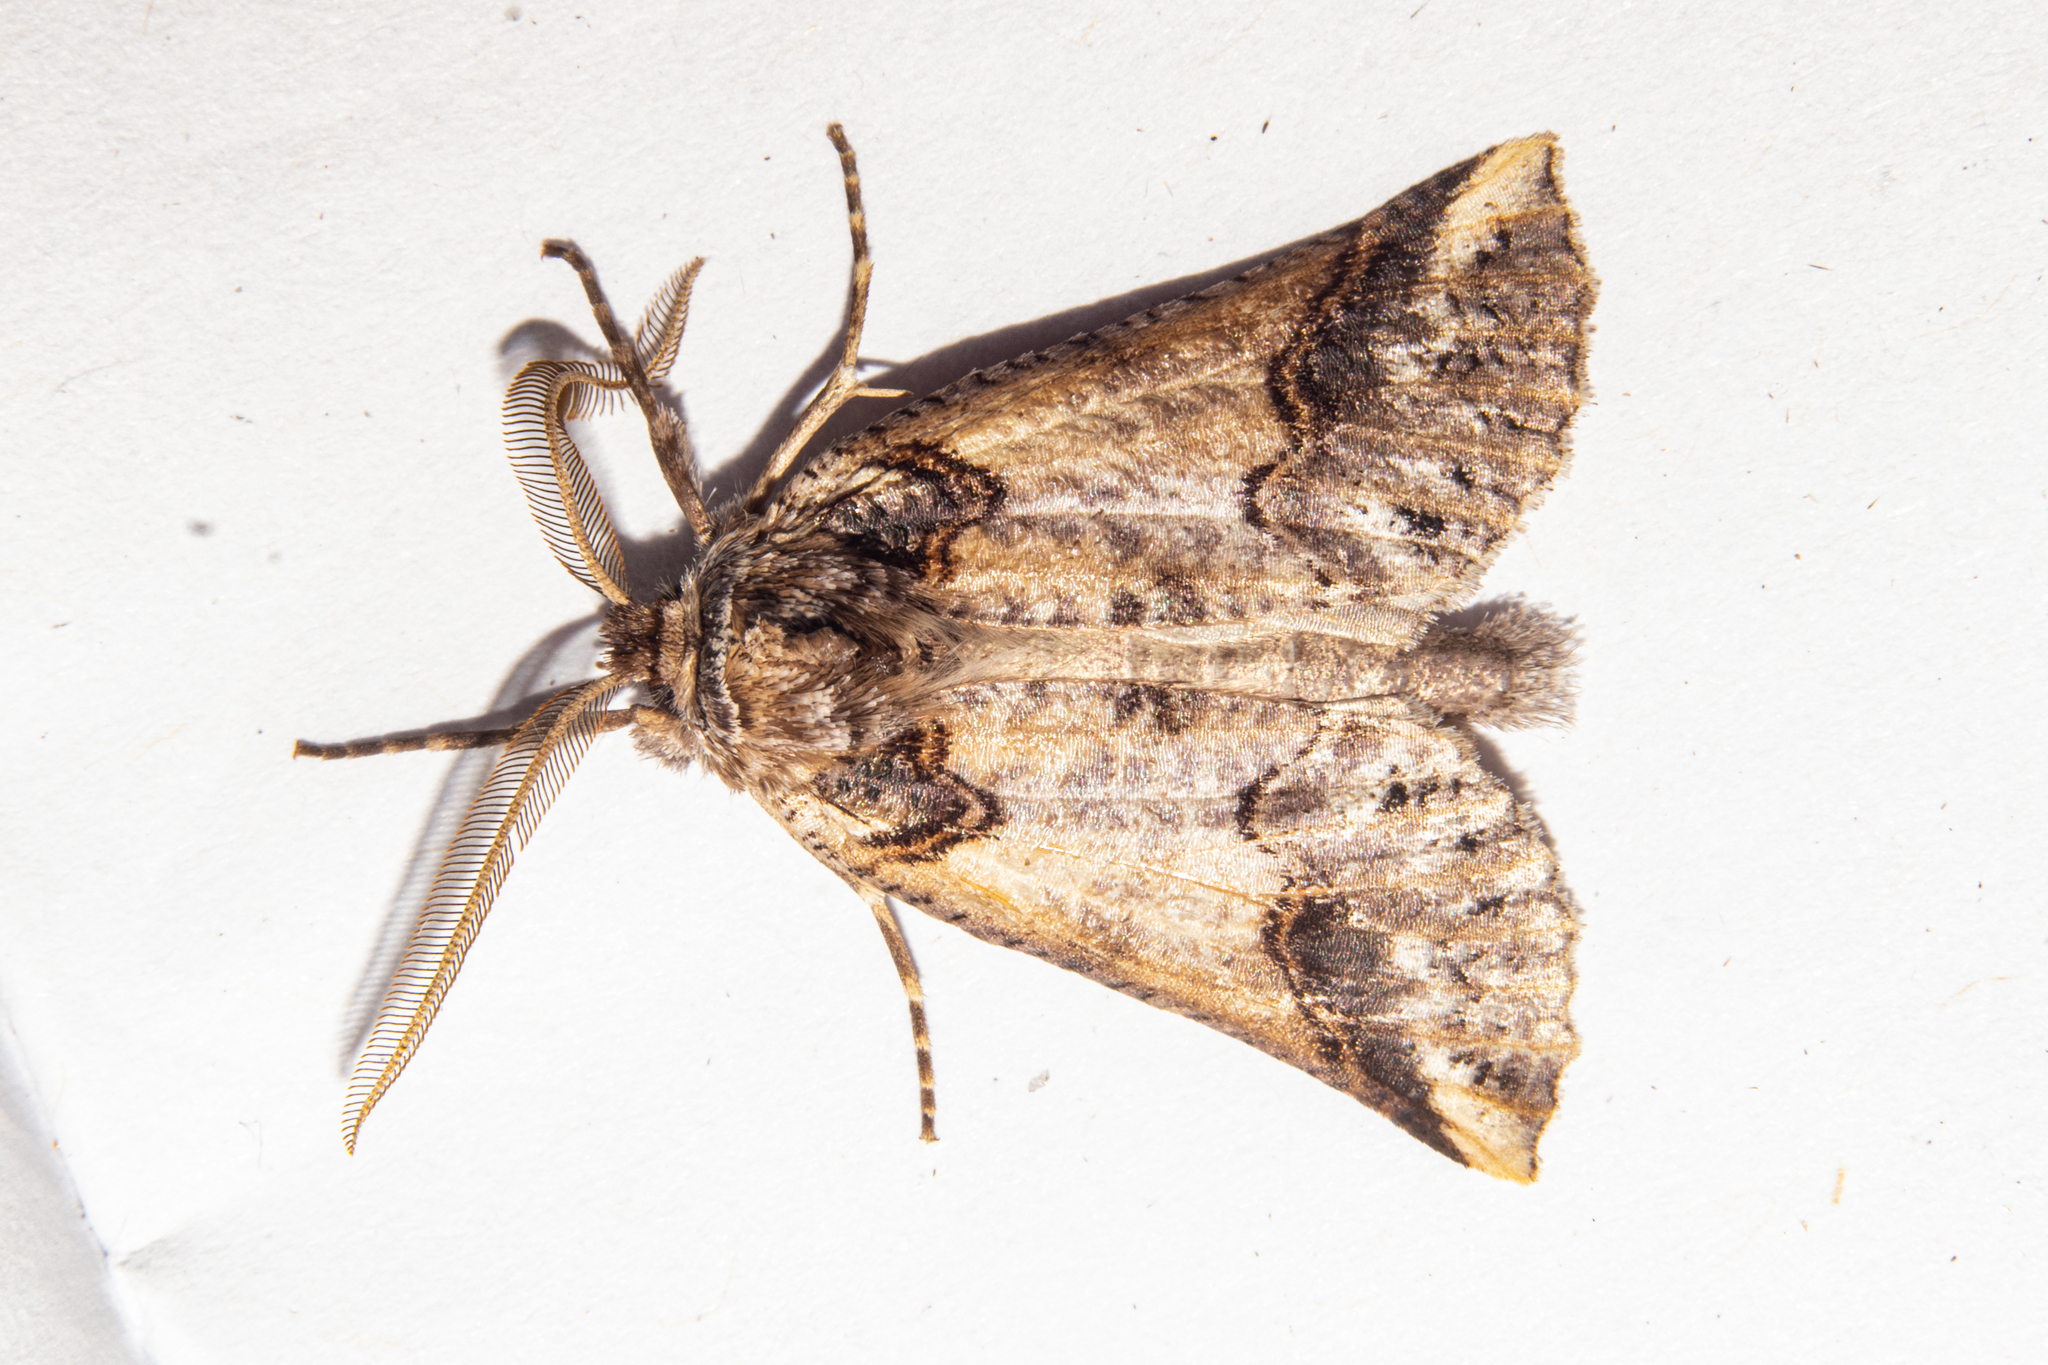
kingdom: Animalia
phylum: Arthropoda
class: Insecta
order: Lepidoptera
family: Geometridae
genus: Declana
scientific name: Declana
